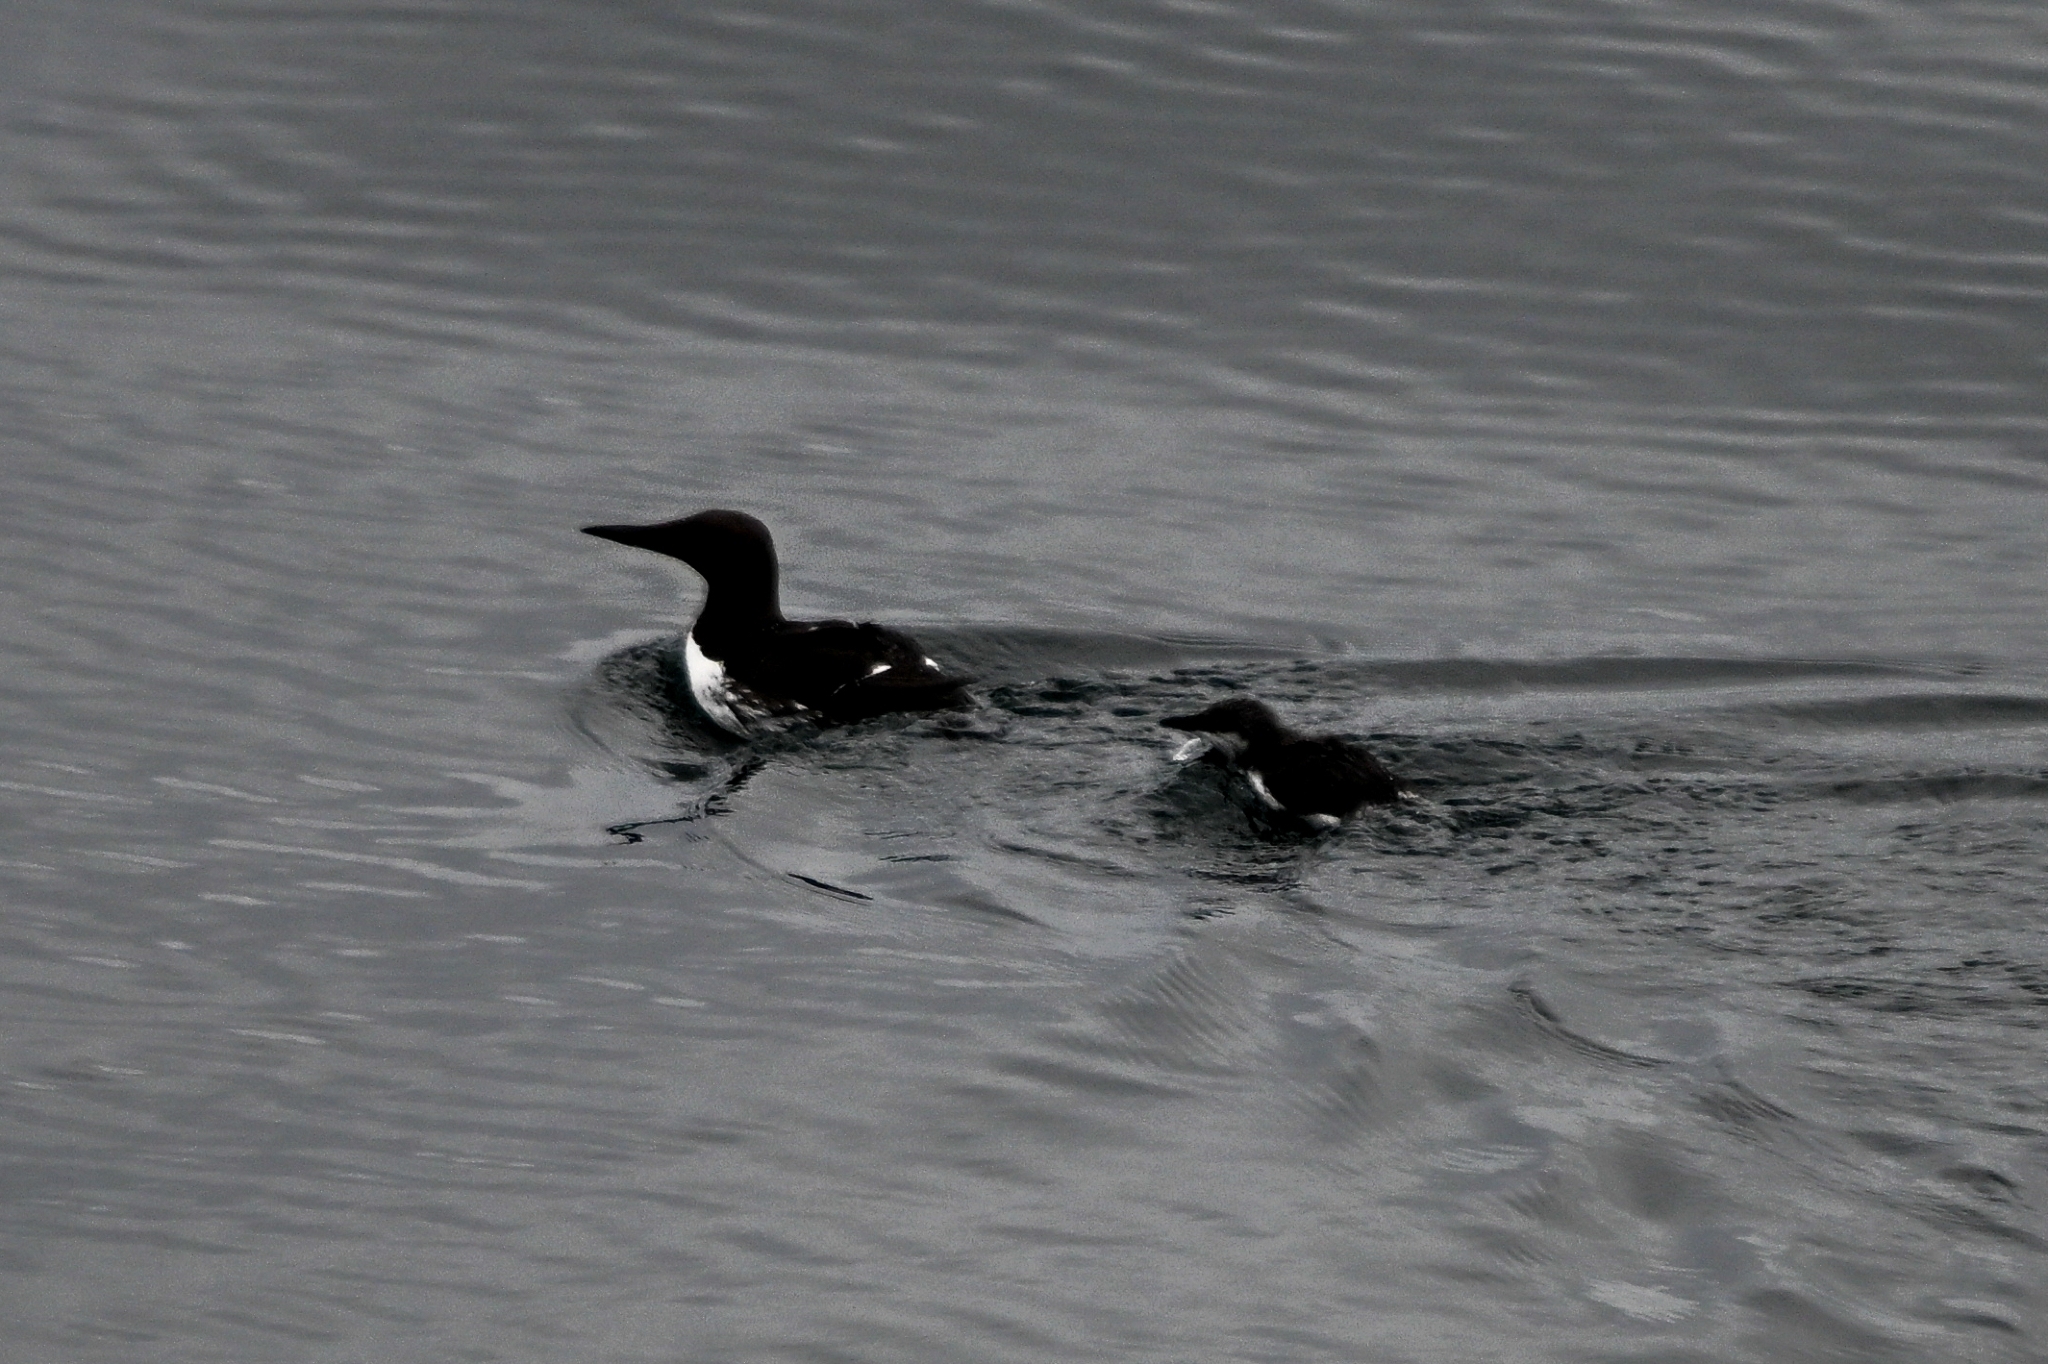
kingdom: Animalia
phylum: Chordata
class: Aves
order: Charadriiformes
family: Alcidae
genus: Uria
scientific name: Uria aalge
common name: Common murre
